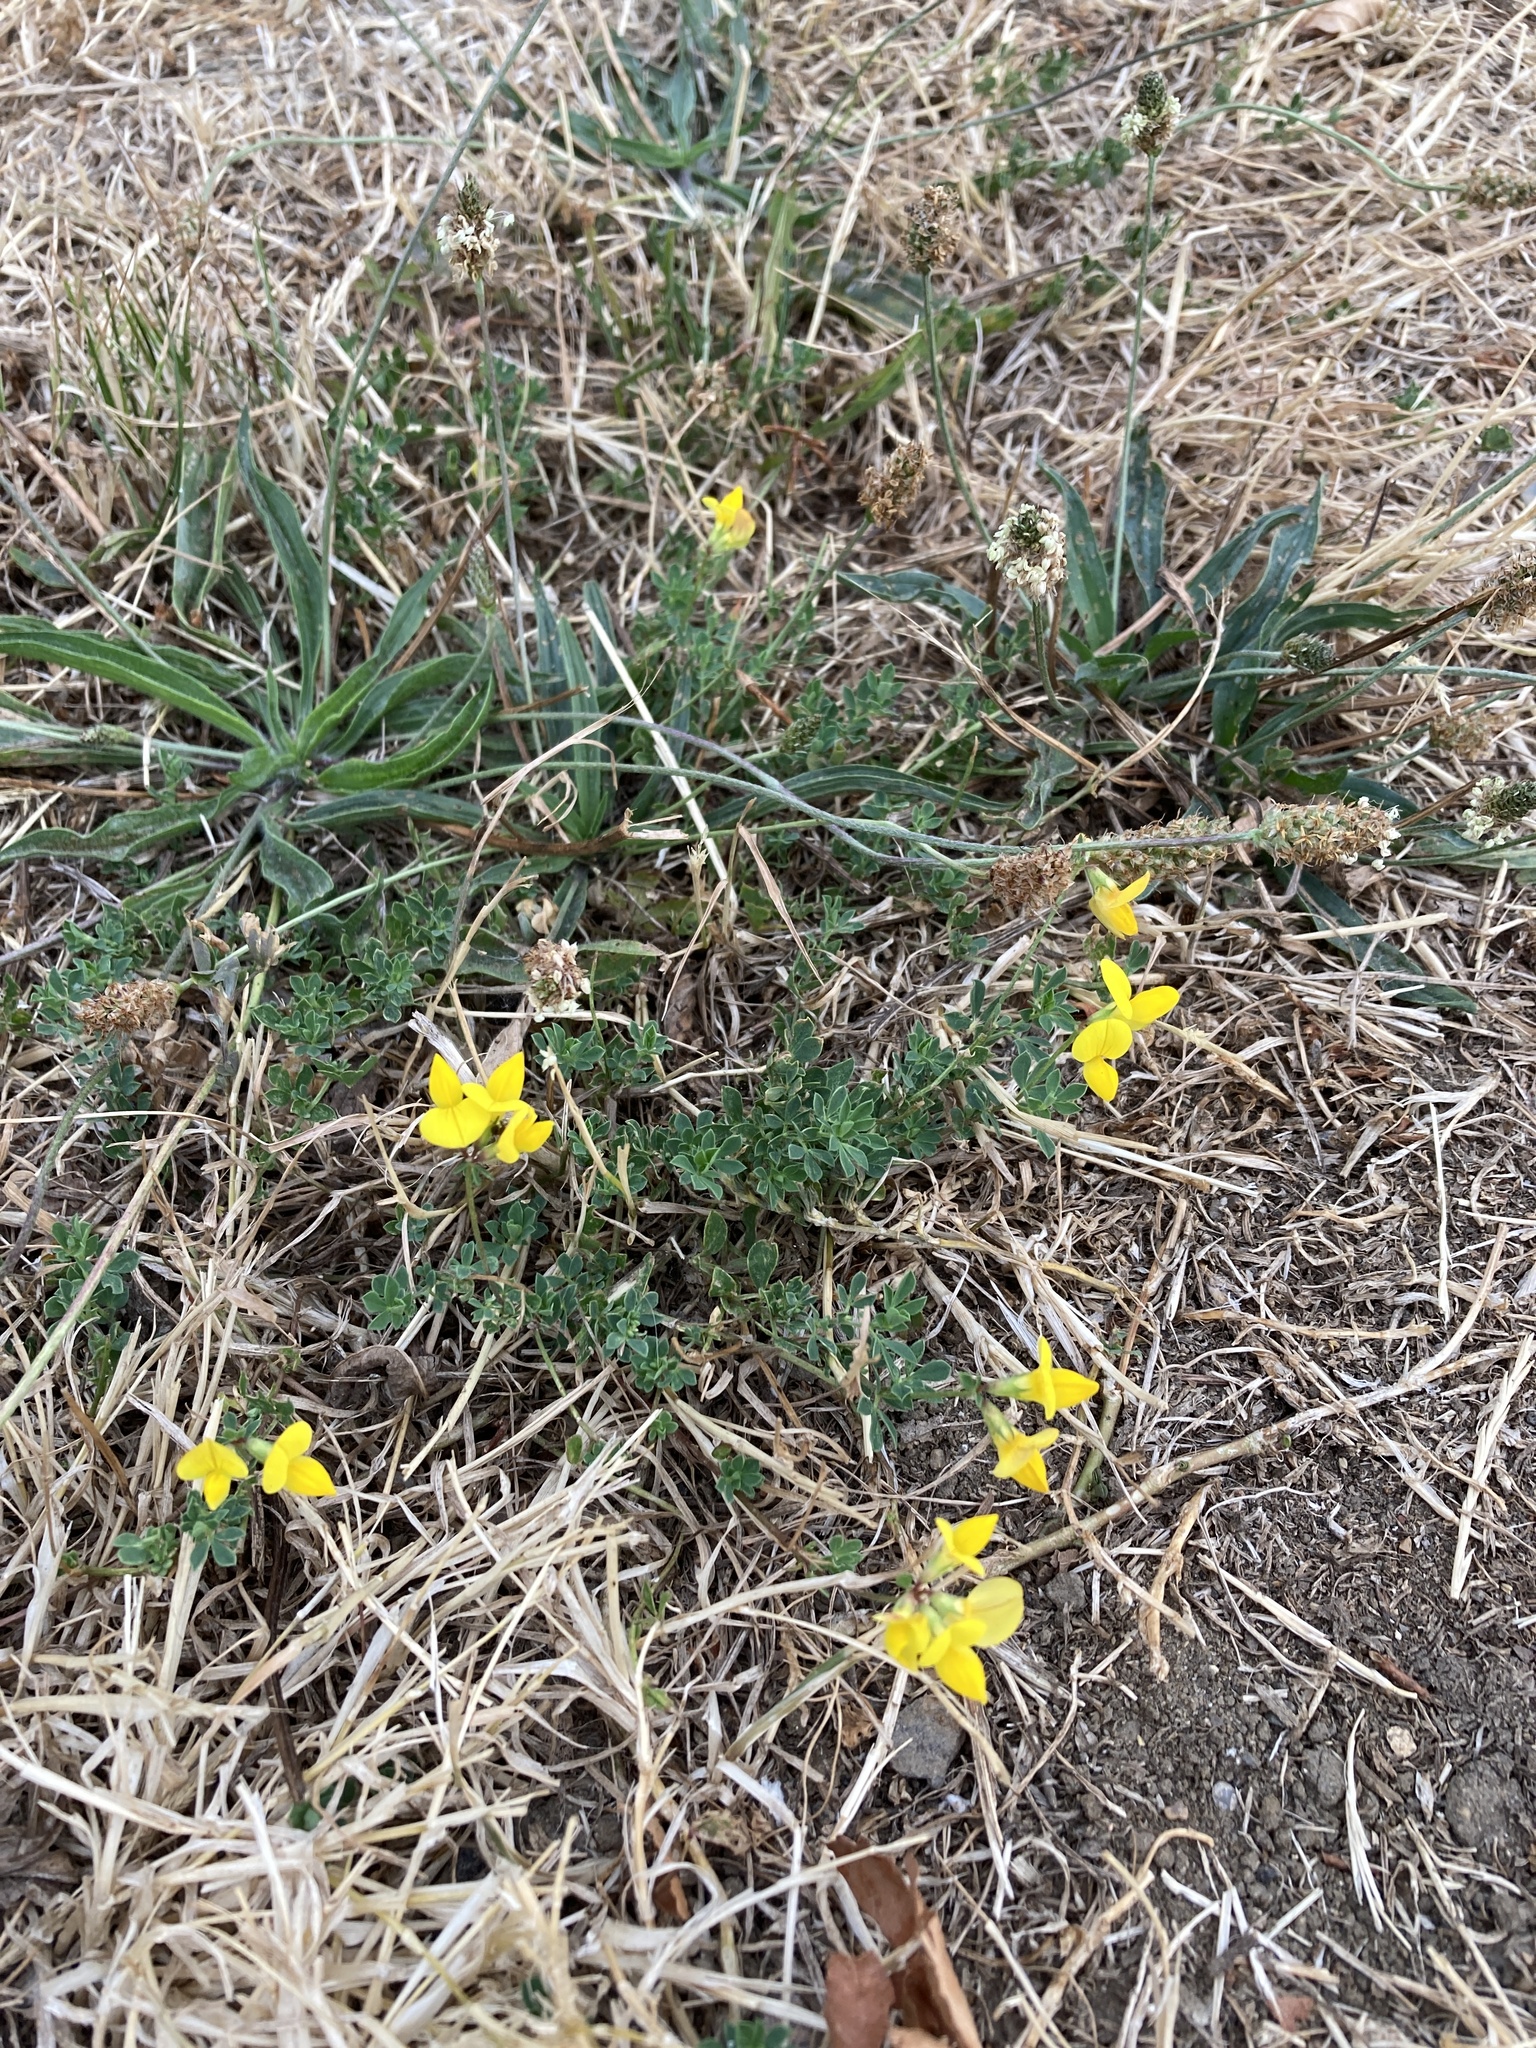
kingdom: Plantae
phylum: Tracheophyta
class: Magnoliopsida
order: Fabales
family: Fabaceae
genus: Lotus
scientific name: Lotus corniculatus
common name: Common bird's-foot-trefoil
